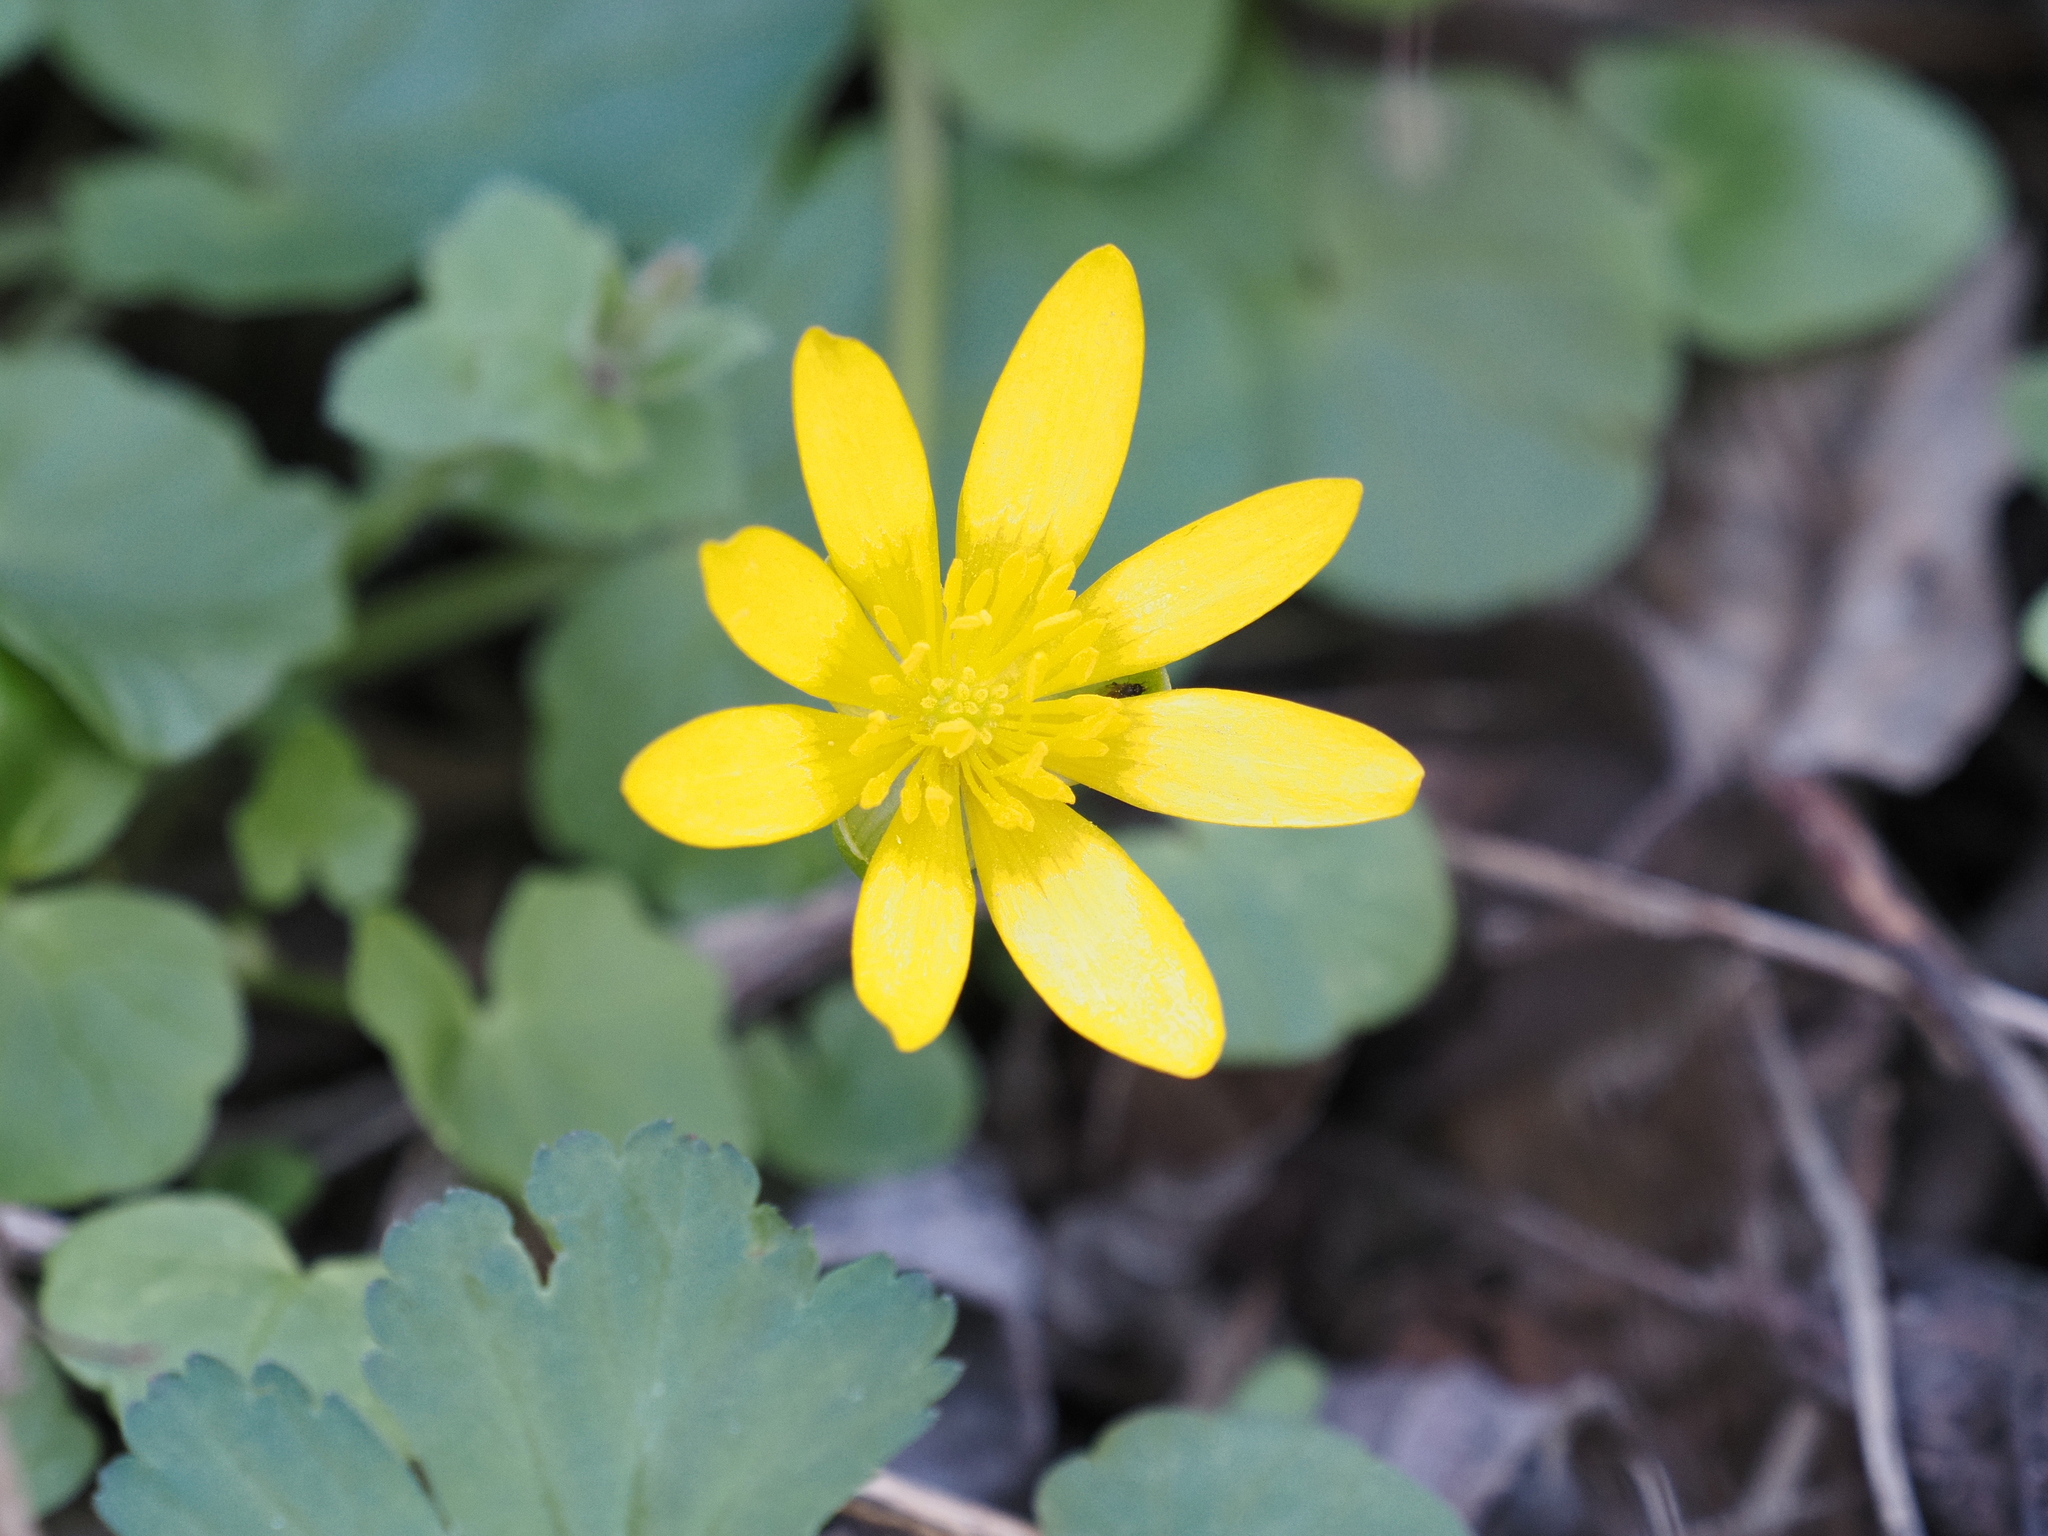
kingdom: Plantae
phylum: Tracheophyta
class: Magnoliopsida
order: Ranunculales
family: Ranunculaceae
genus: Ficaria
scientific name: Ficaria verna
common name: Lesser celandine
